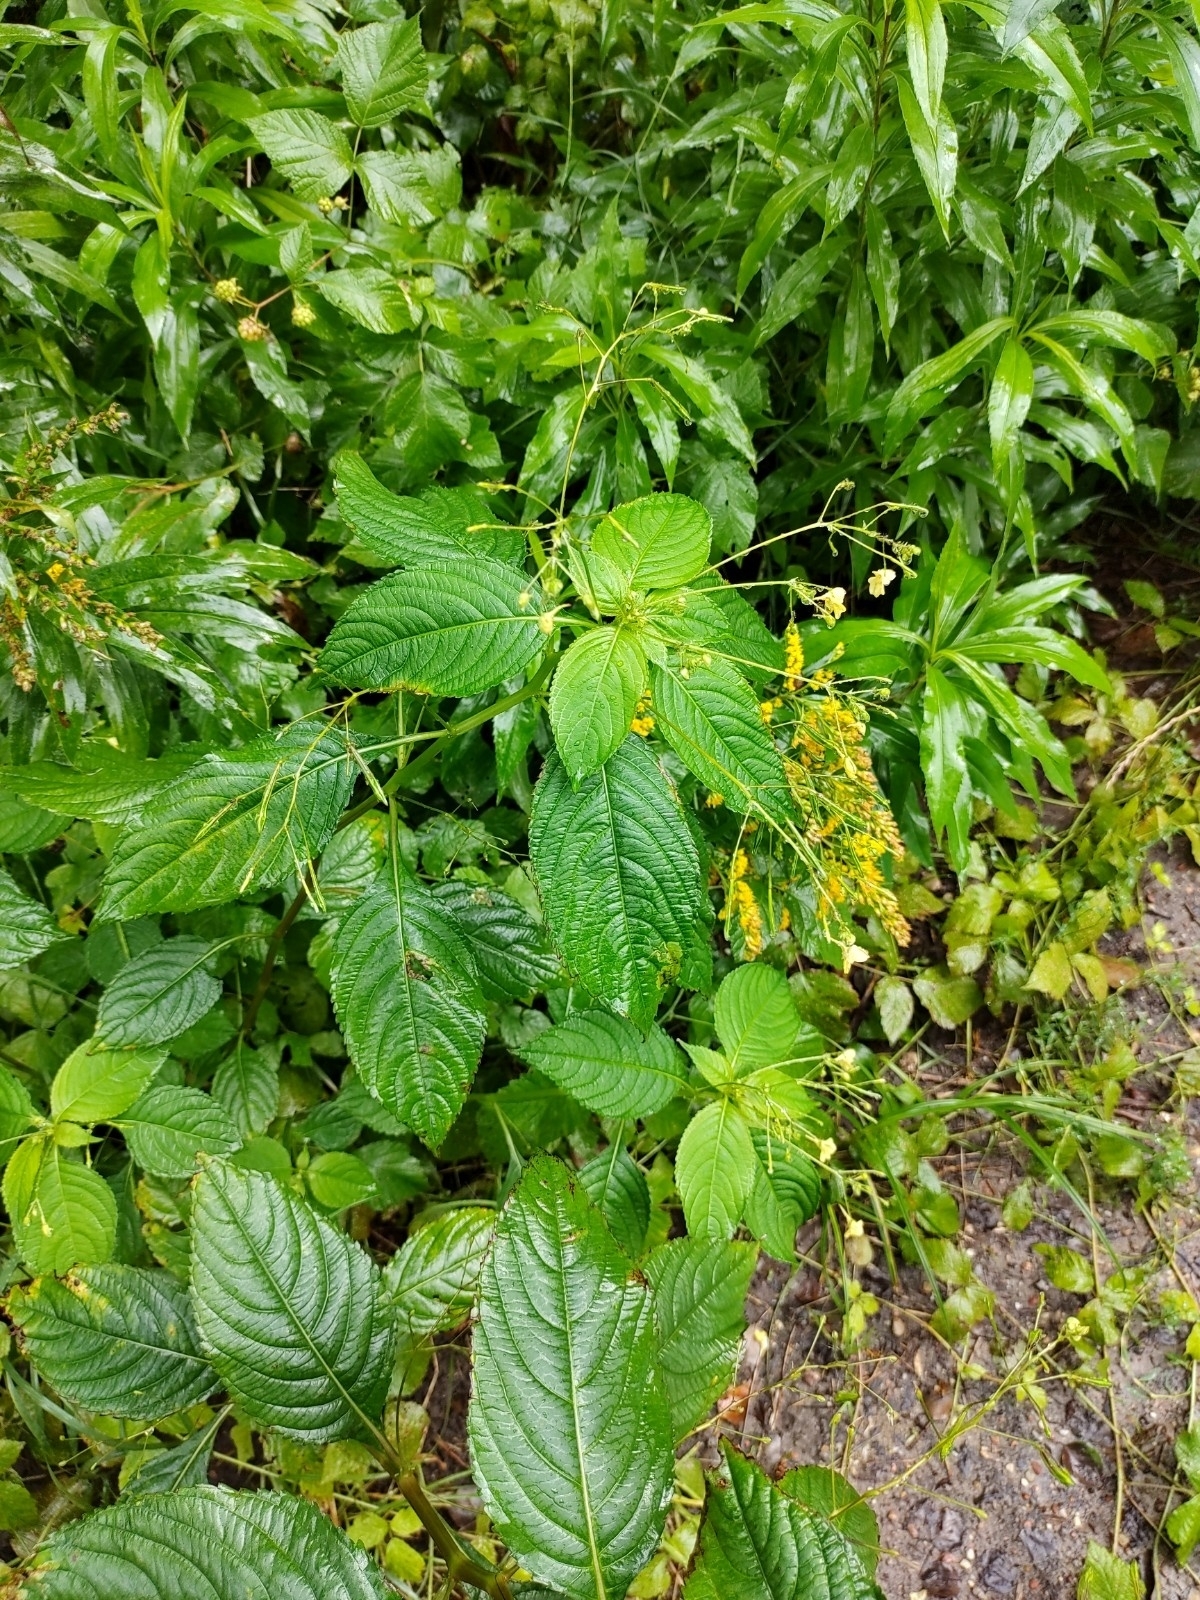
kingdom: Plantae
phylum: Tracheophyta
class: Magnoliopsida
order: Ericales
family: Balsaminaceae
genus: Impatiens
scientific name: Impatiens parviflora
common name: Small balsam
